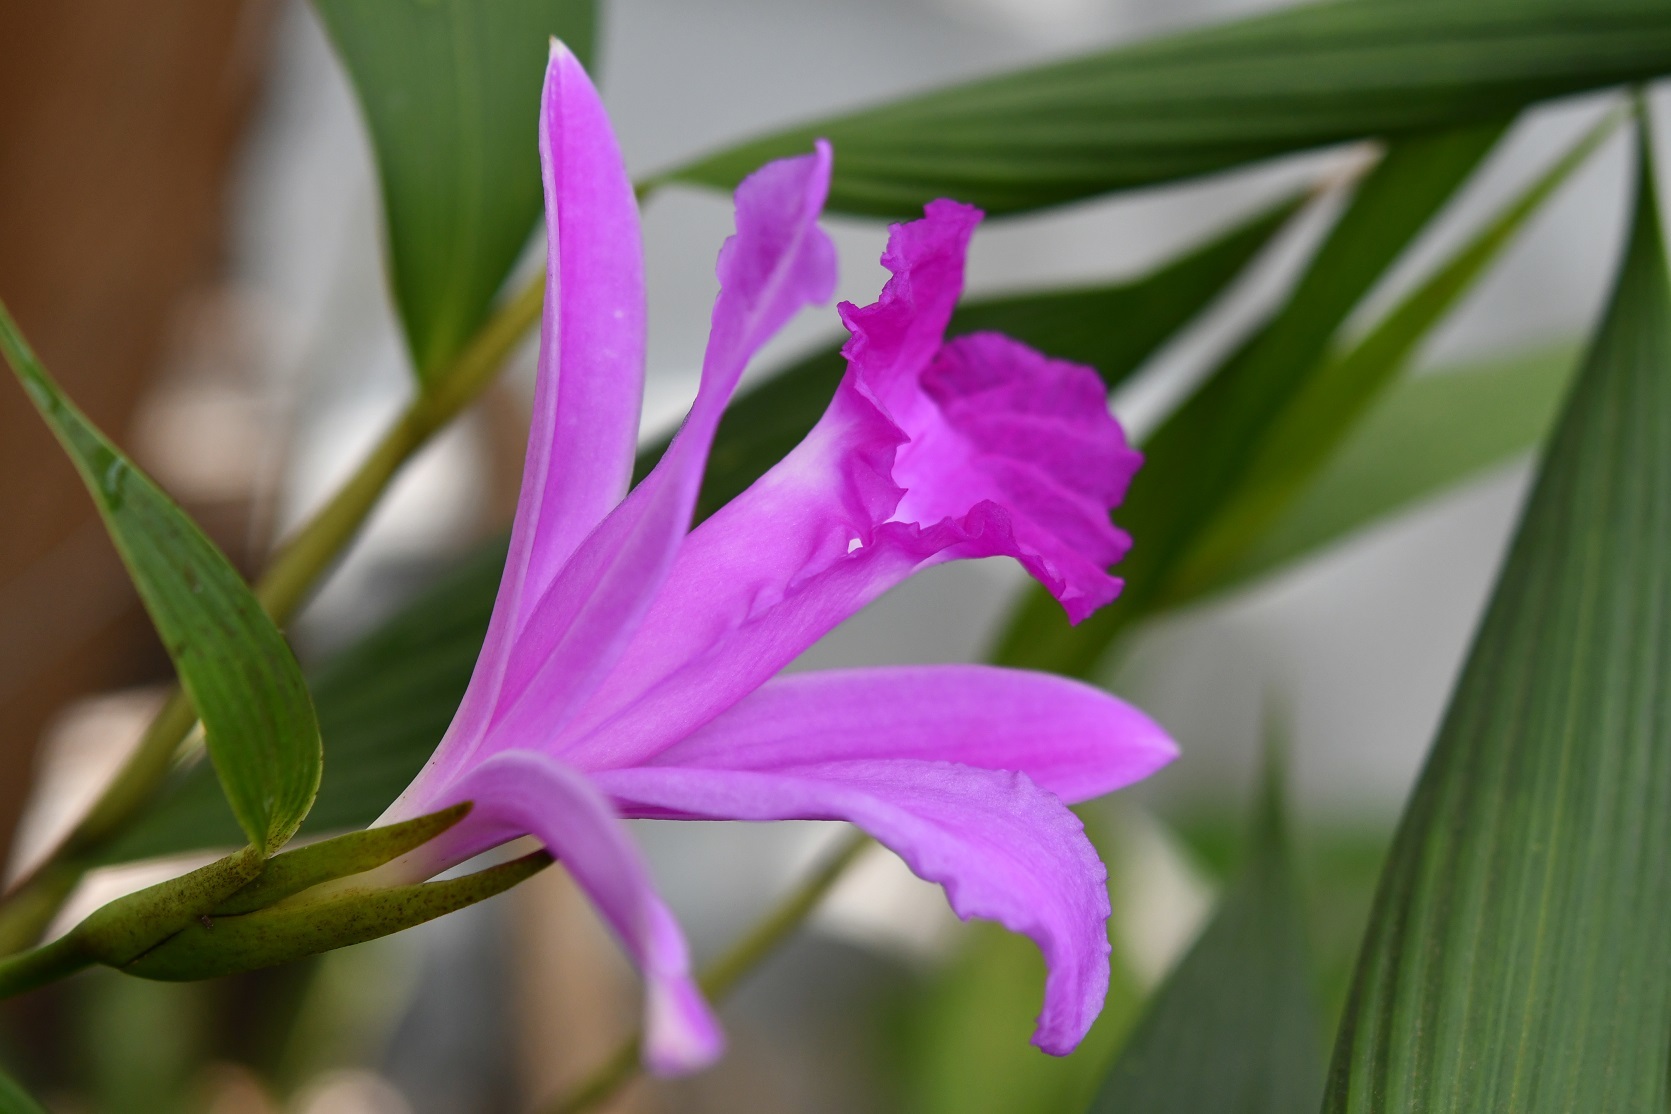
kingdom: Plantae
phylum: Tracheophyta
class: Liliopsida
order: Asparagales
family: Orchidaceae
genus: Sobralia
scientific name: Sobralia macrantha
